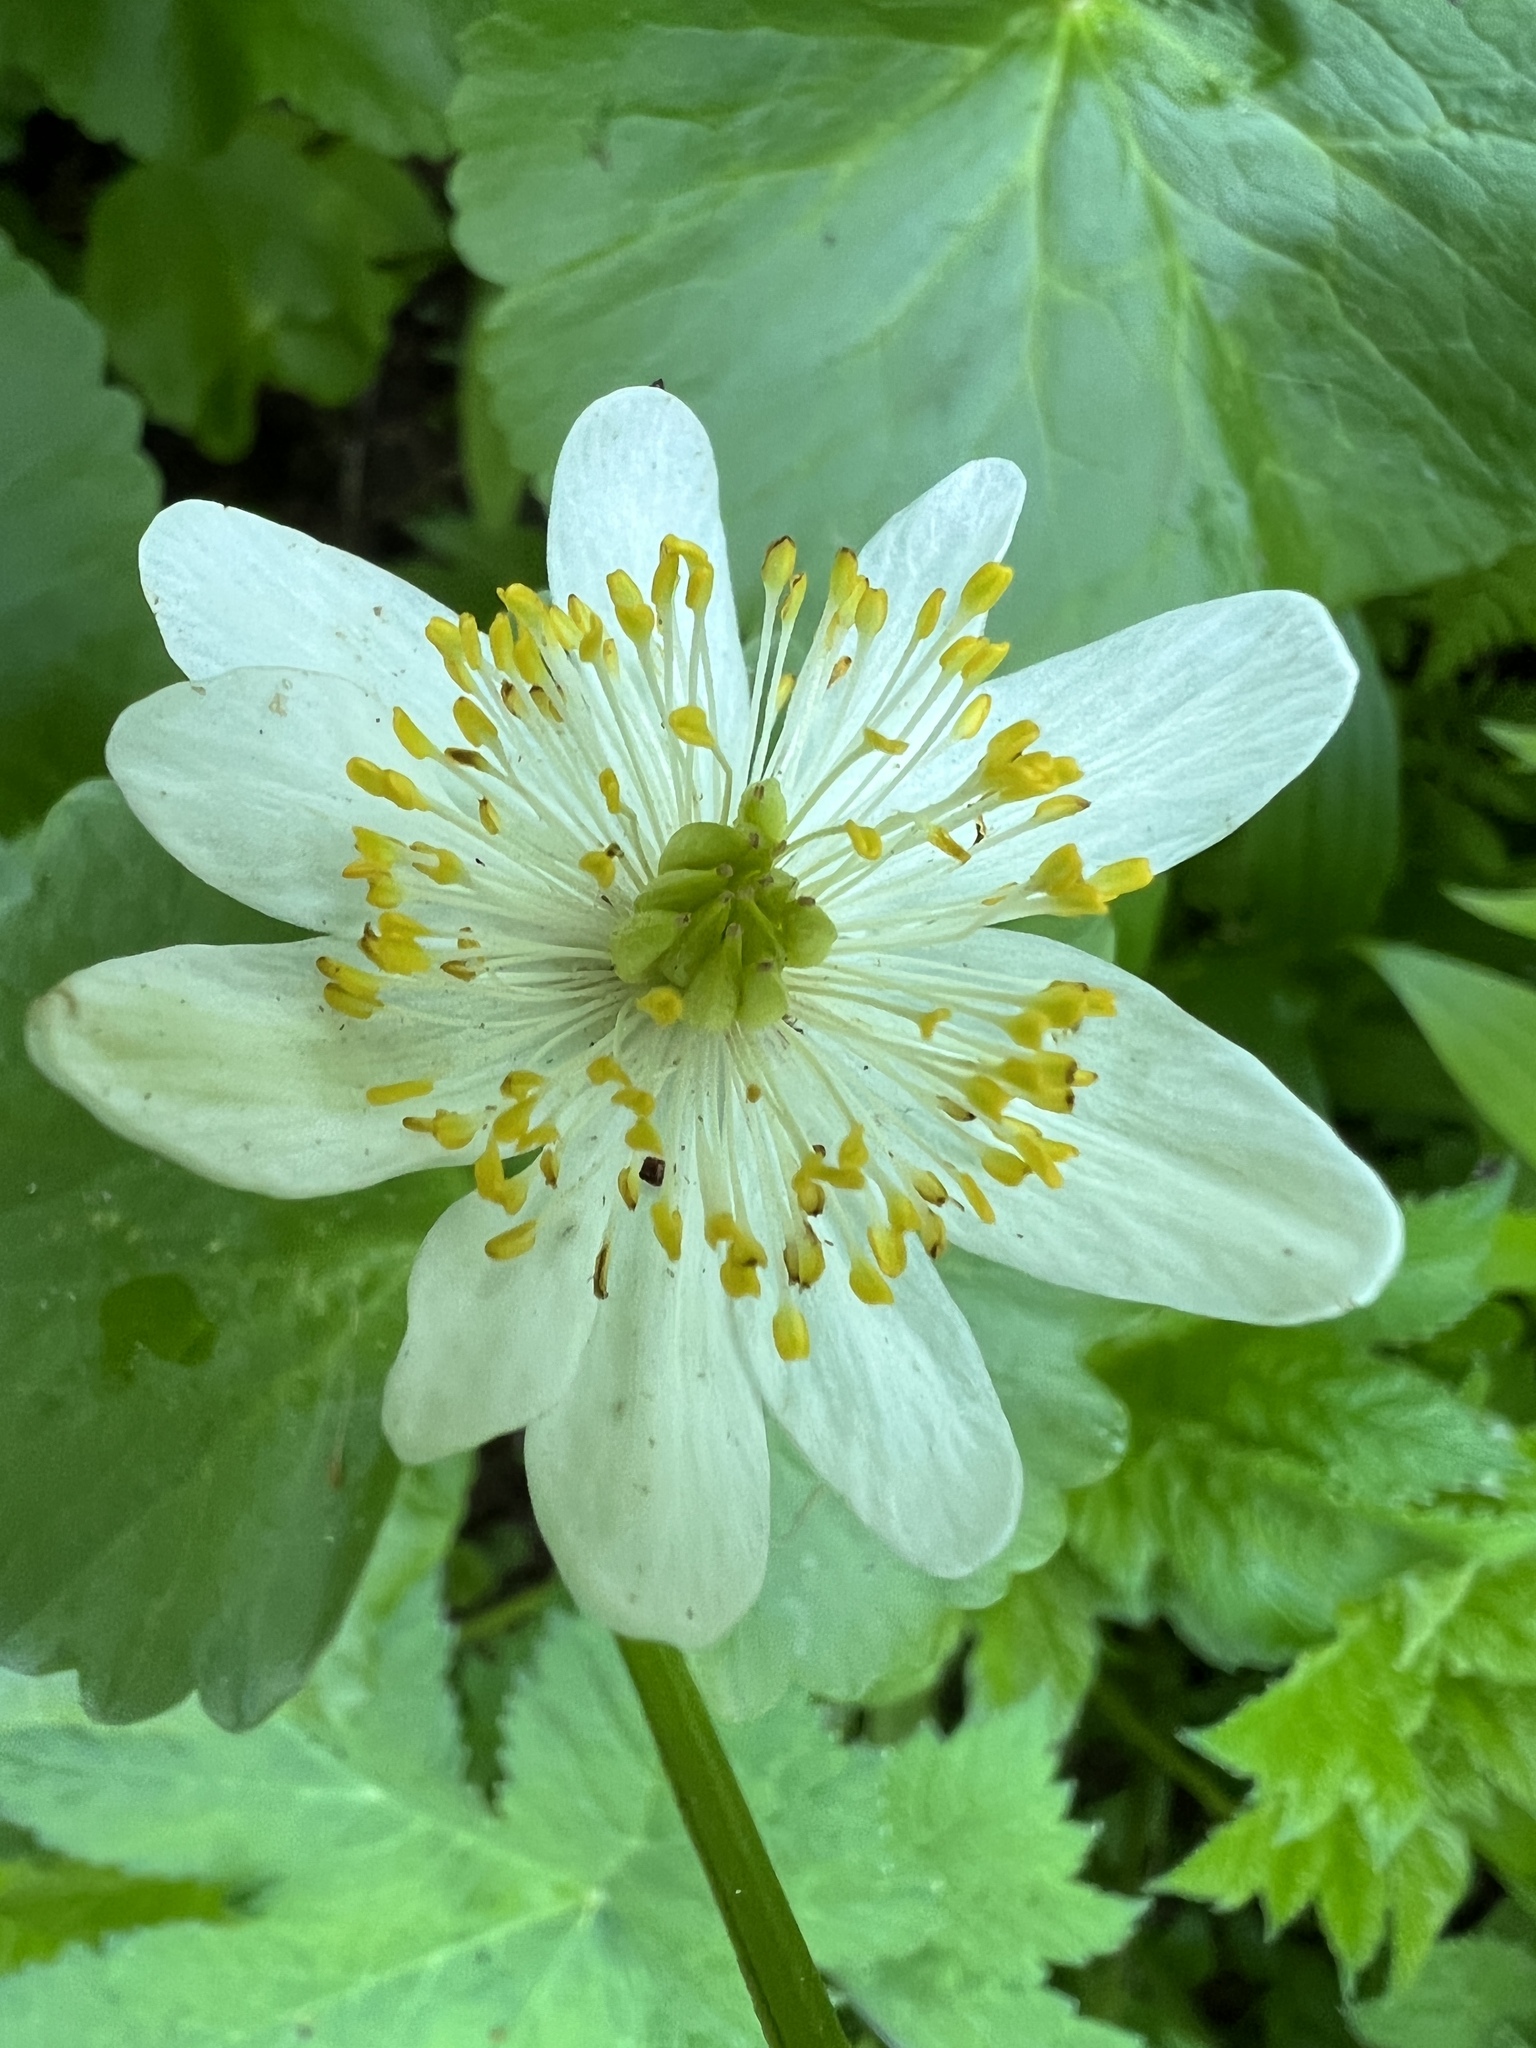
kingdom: Plantae
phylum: Tracheophyta
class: Magnoliopsida
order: Ranunculales
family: Ranunculaceae
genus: Caltha
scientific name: Caltha biflora
